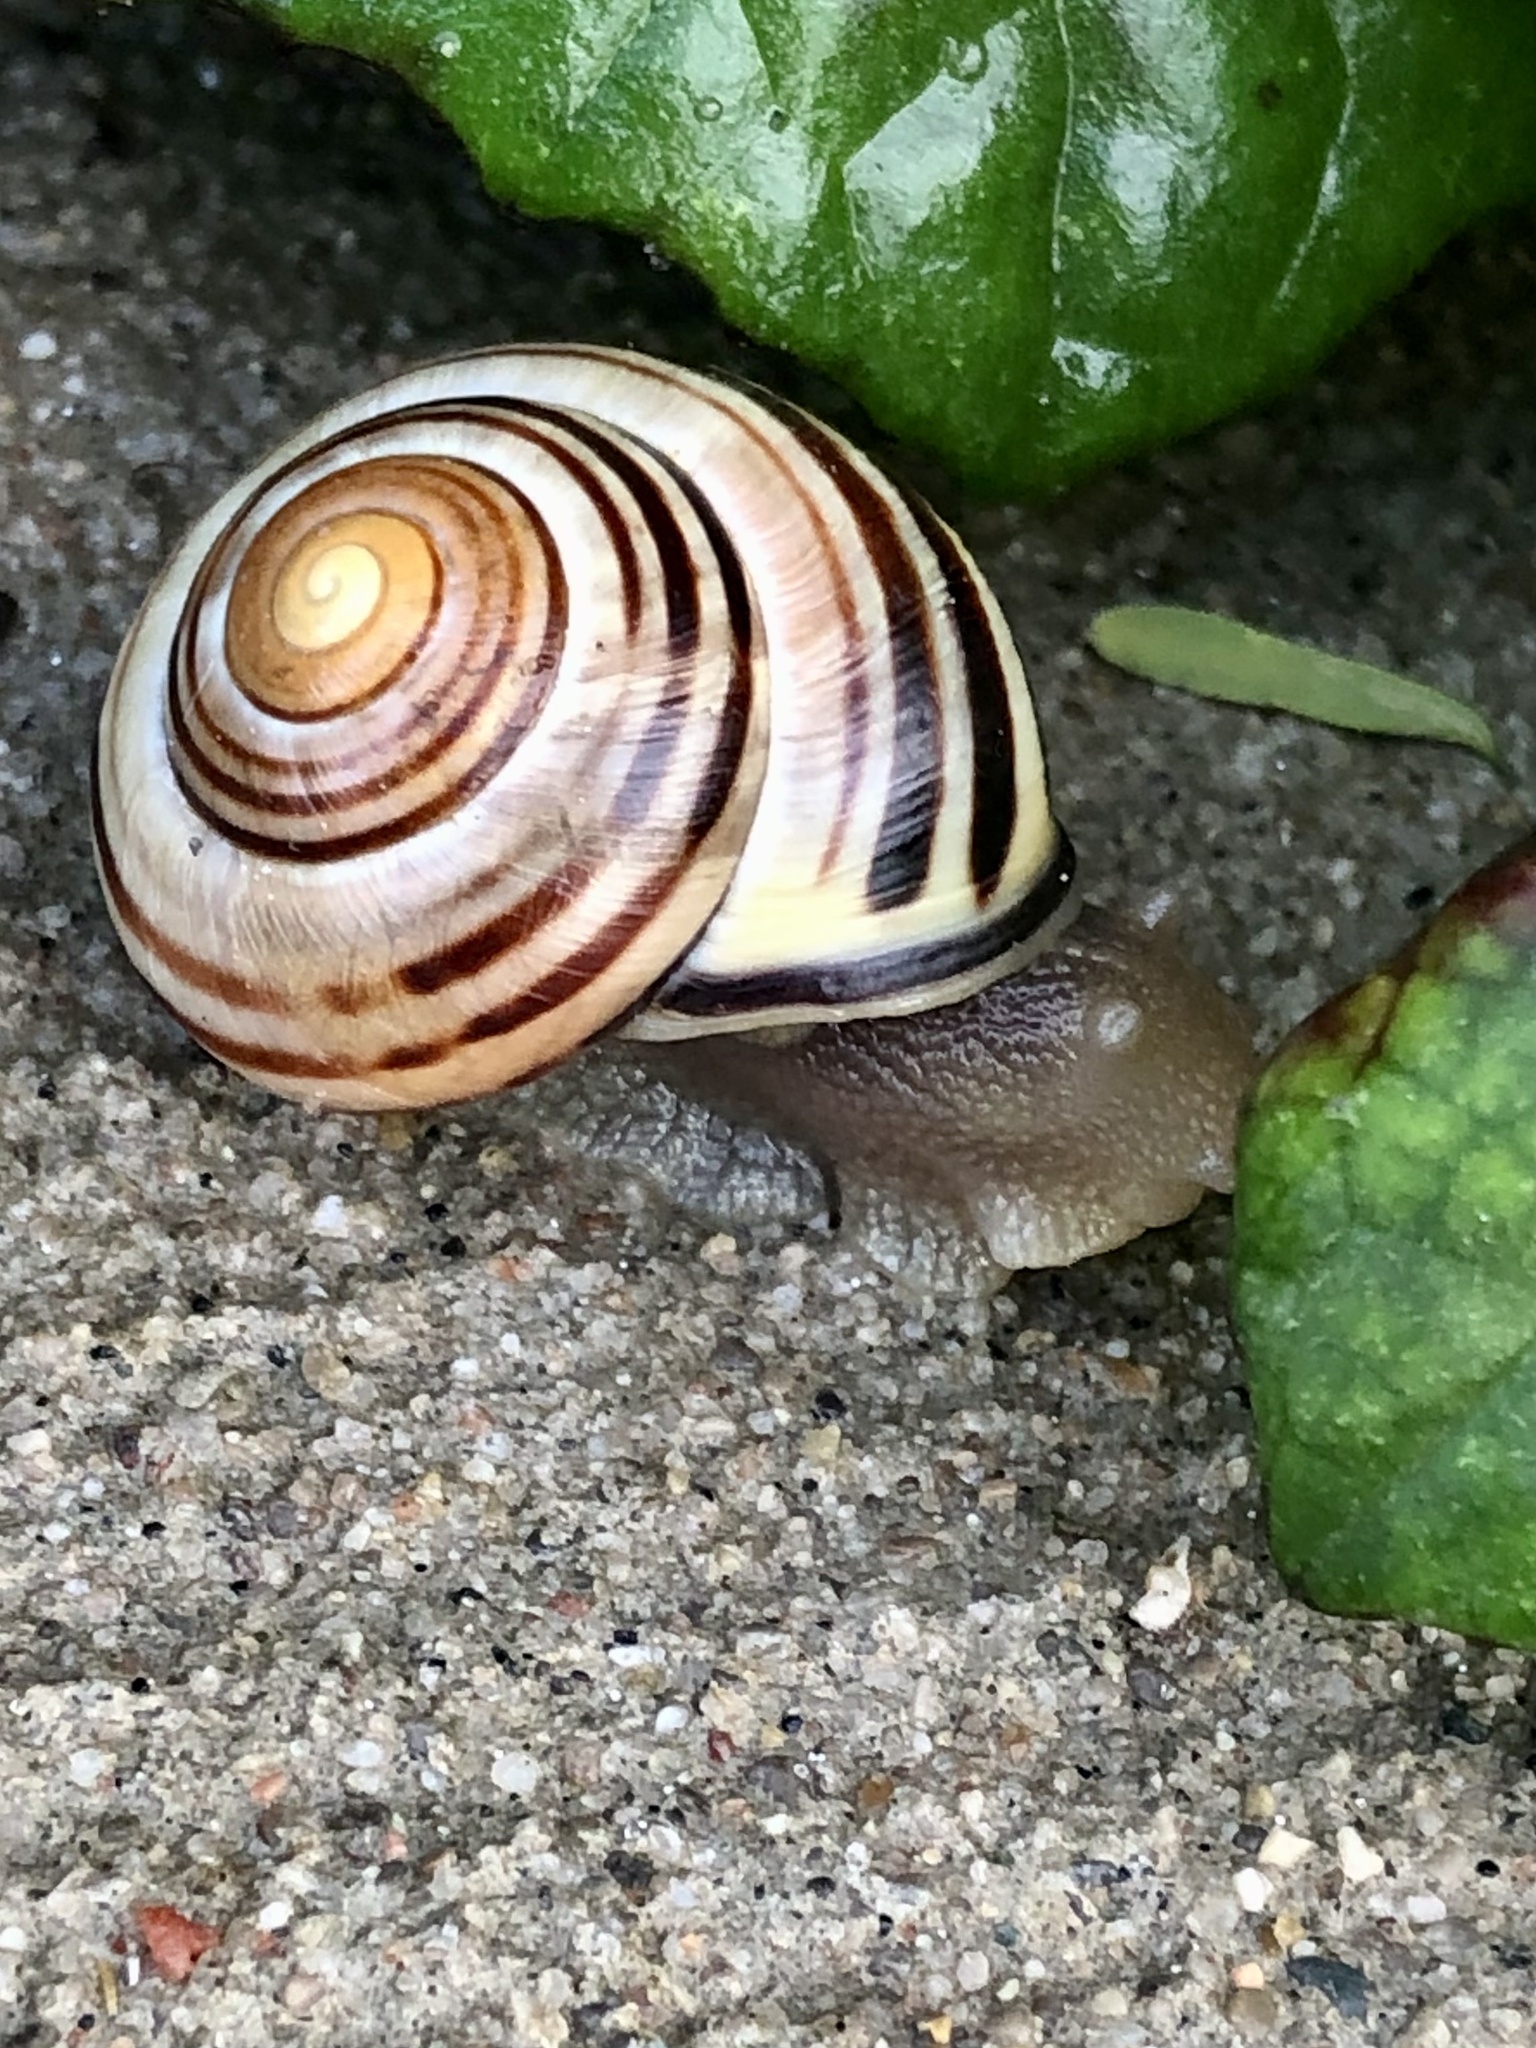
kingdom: Animalia
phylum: Mollusca
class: Gastropoda
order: Stylommatophora
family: Helicidae
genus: Cepaea
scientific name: Cepaea nemoralis
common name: Grovesnail
